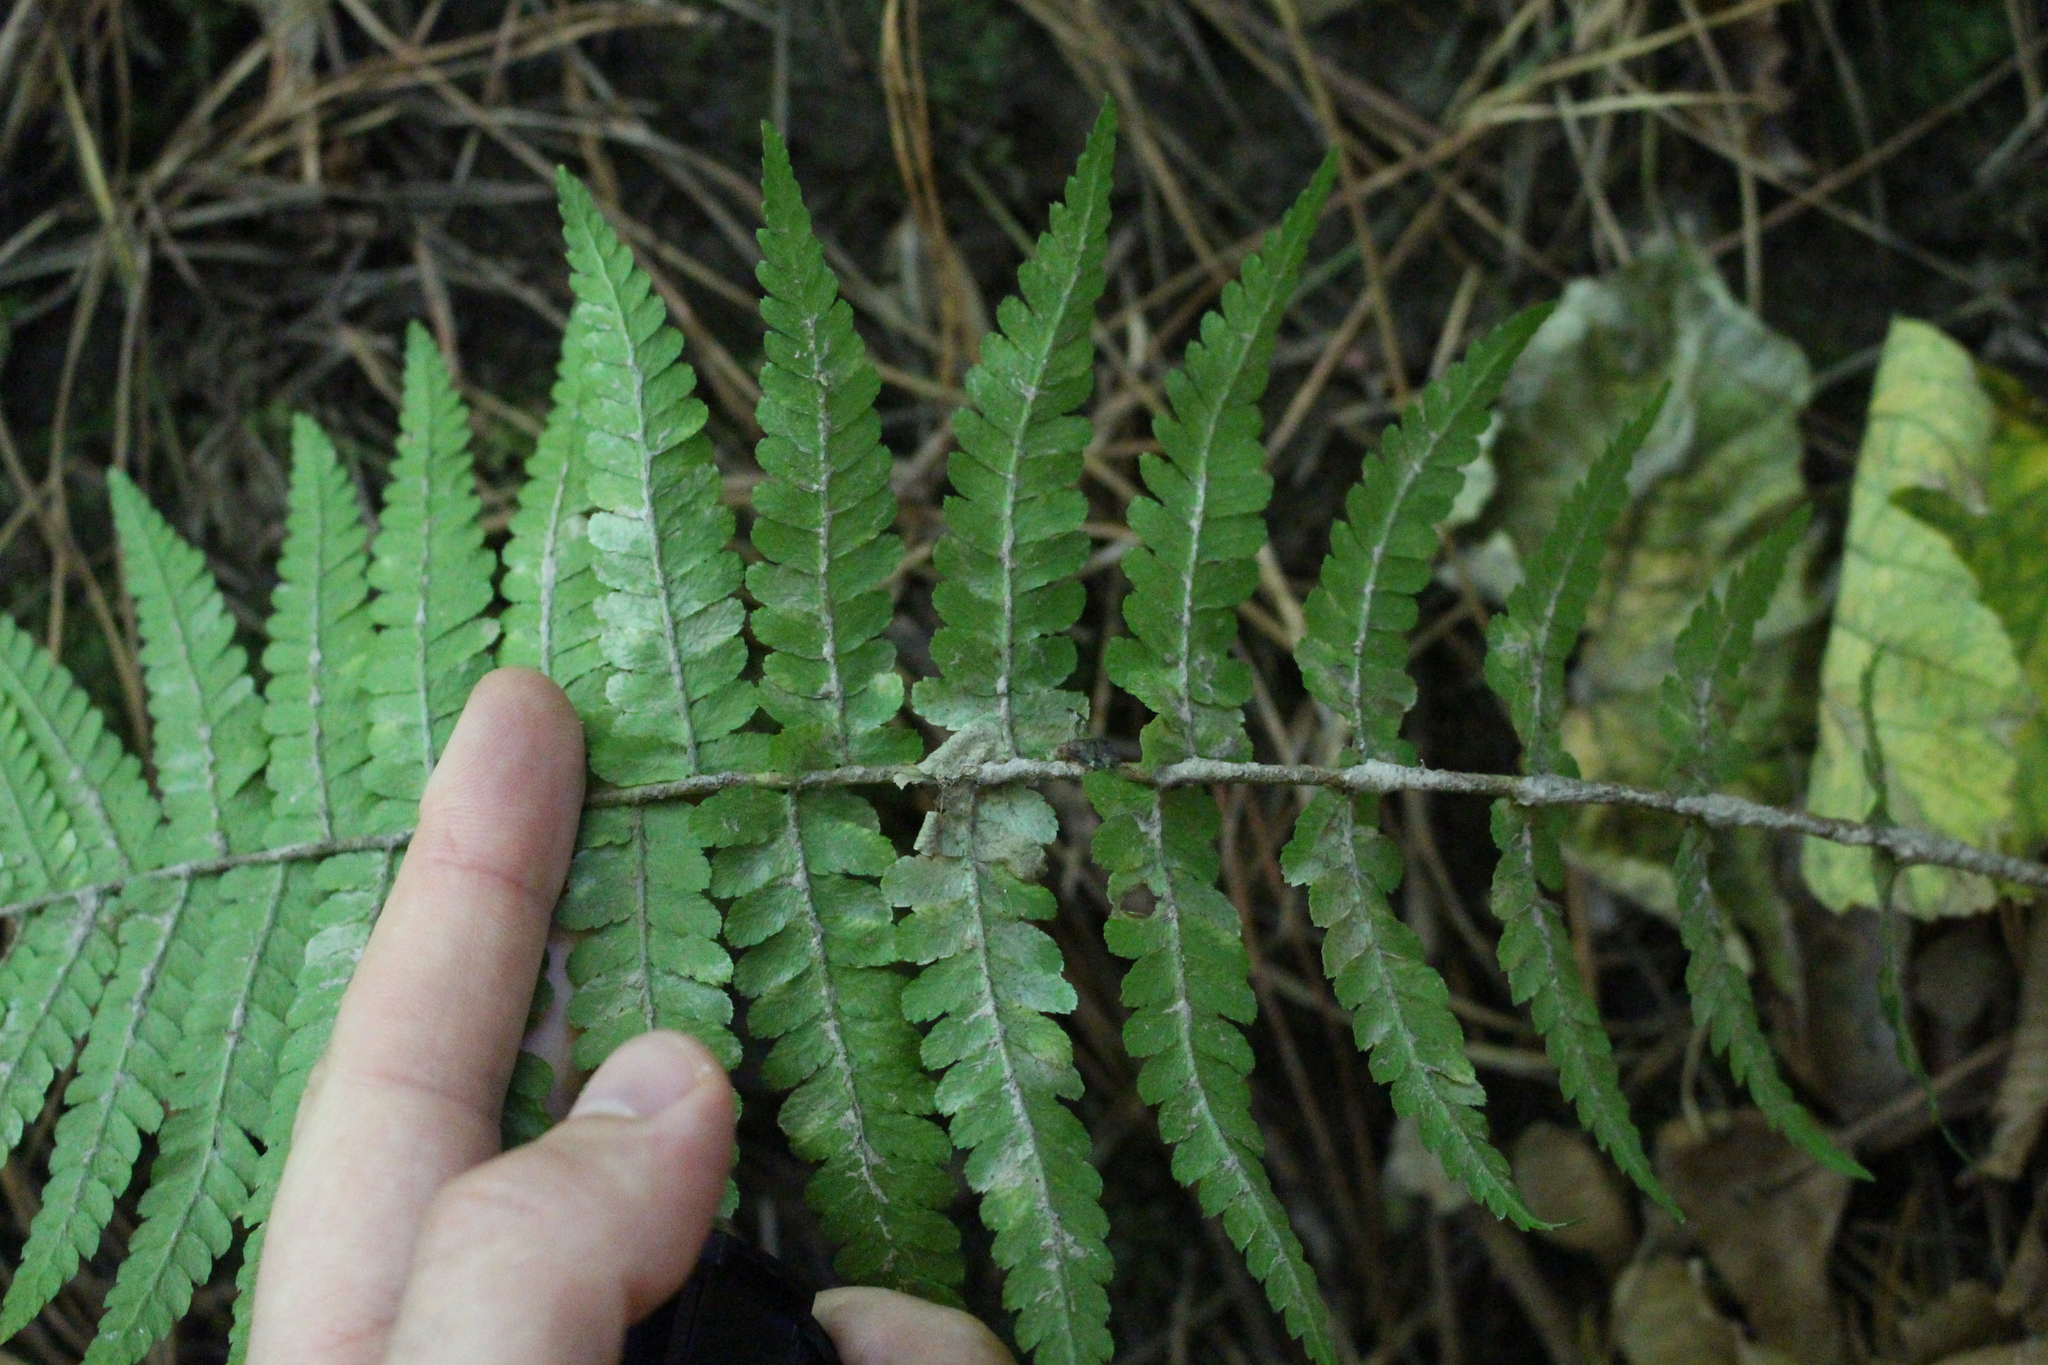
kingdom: Plantae
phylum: Tracheophyta
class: Polypodiopsida
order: Polypodiales
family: Dryopteridaceae
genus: Dryopteris
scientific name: Dryopteris filix-mas
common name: Male fern
